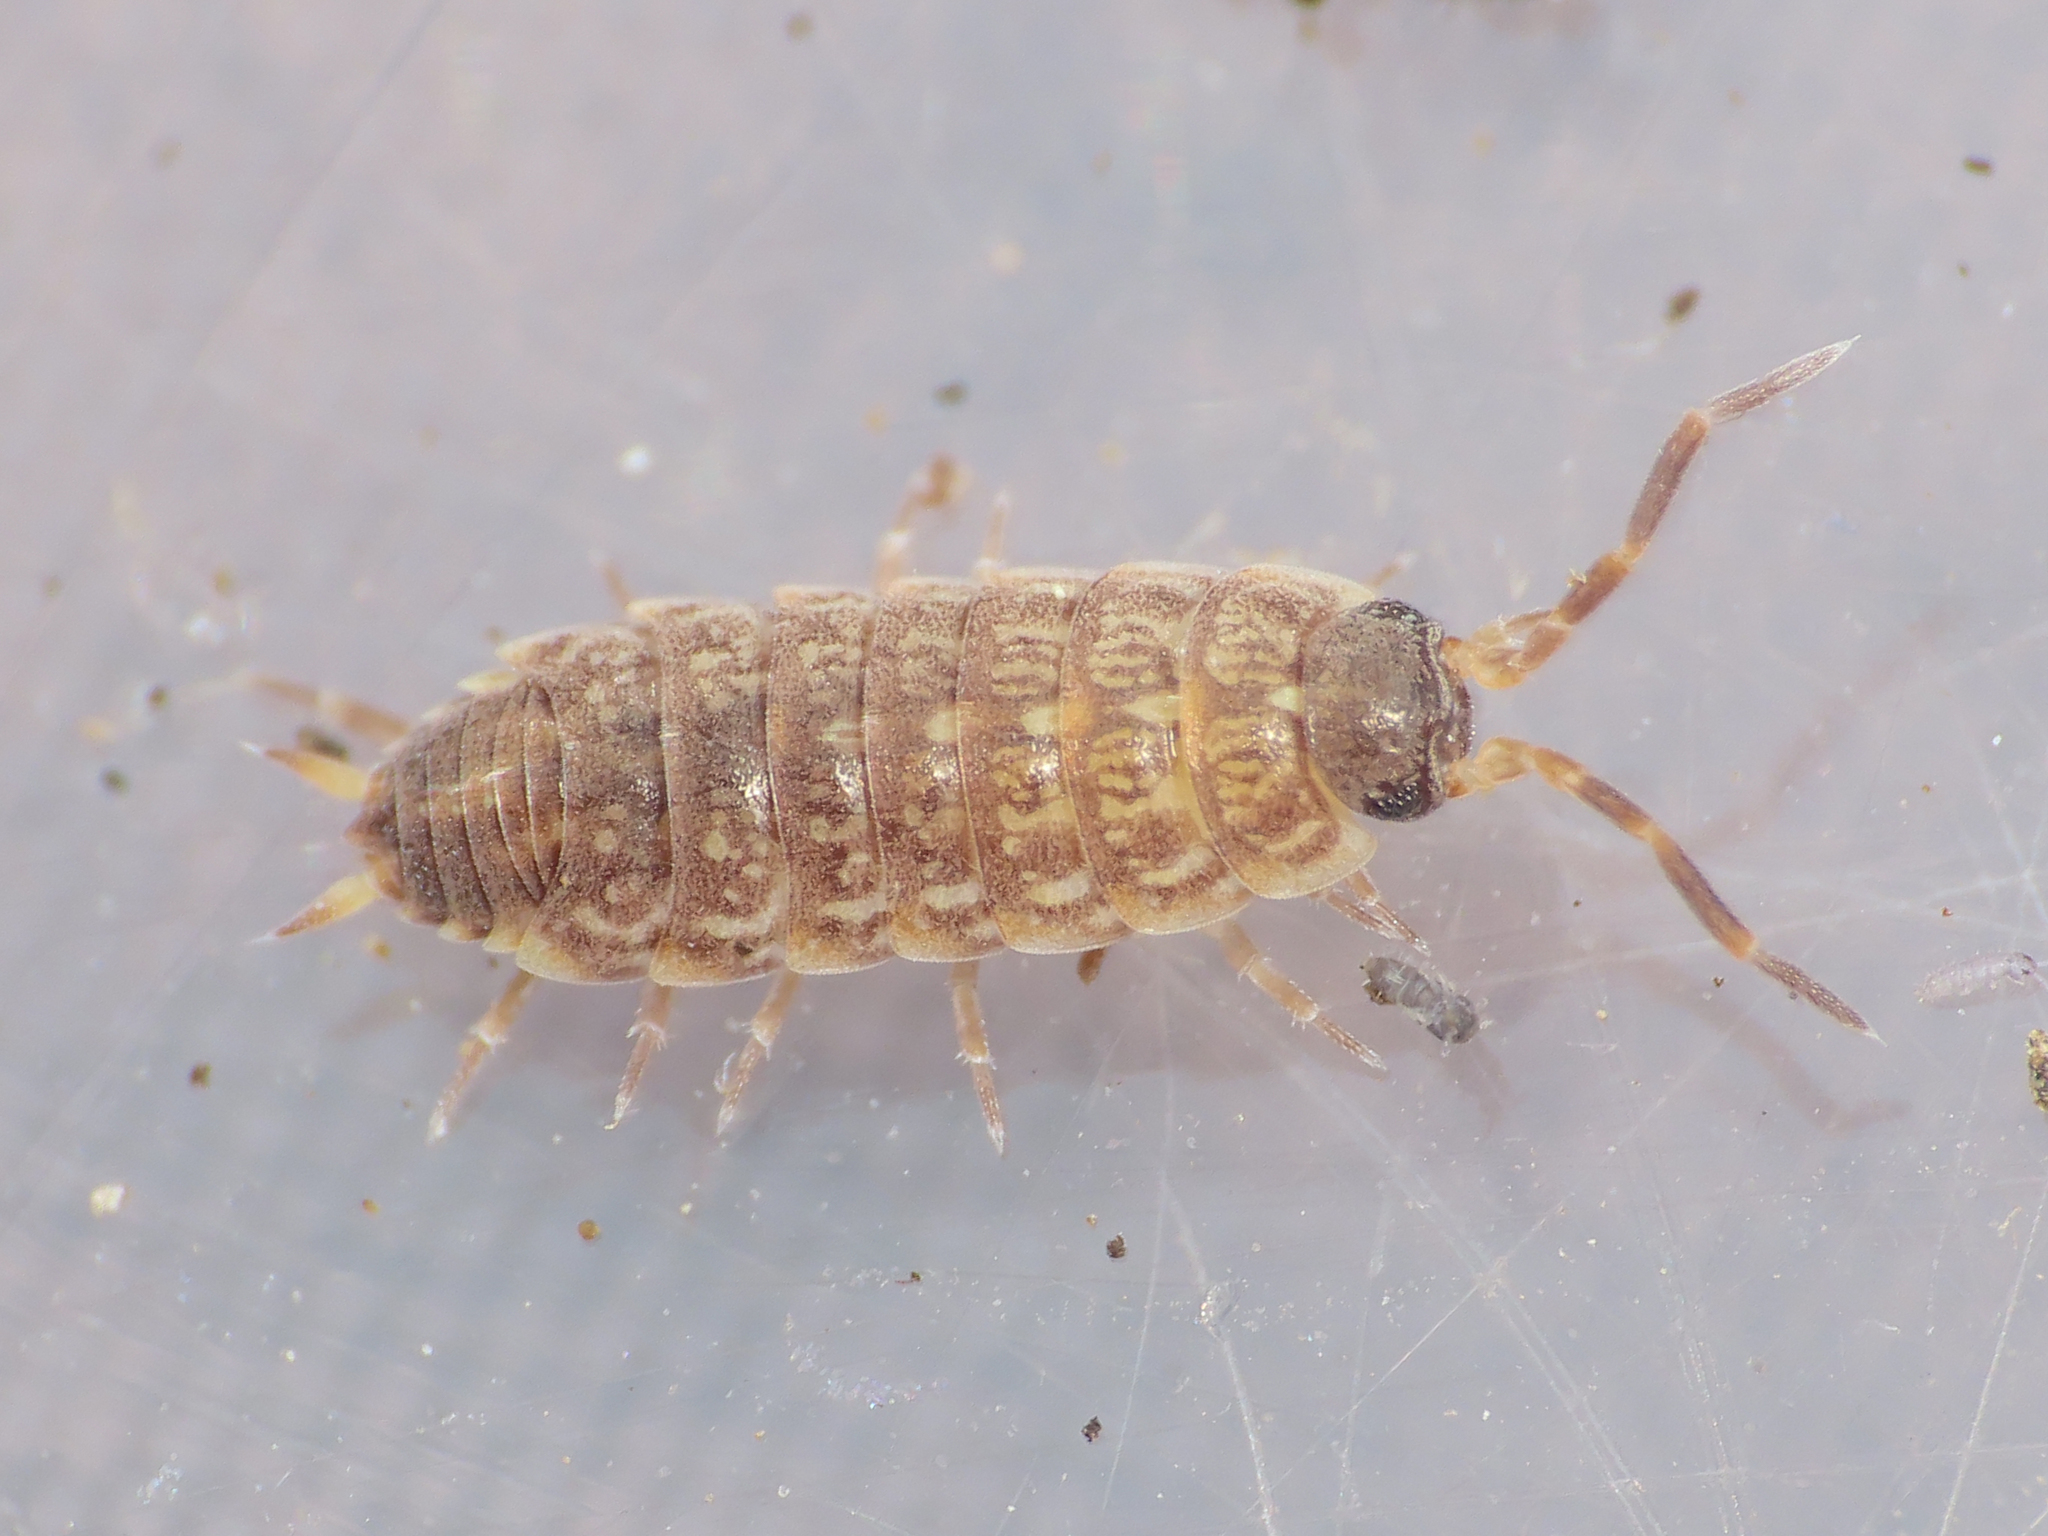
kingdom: Animalia
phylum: Arthropoda
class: Malacostraca
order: Isopoda
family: Porcellionidae
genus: Porcellionides
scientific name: Porcellionides aternanus
